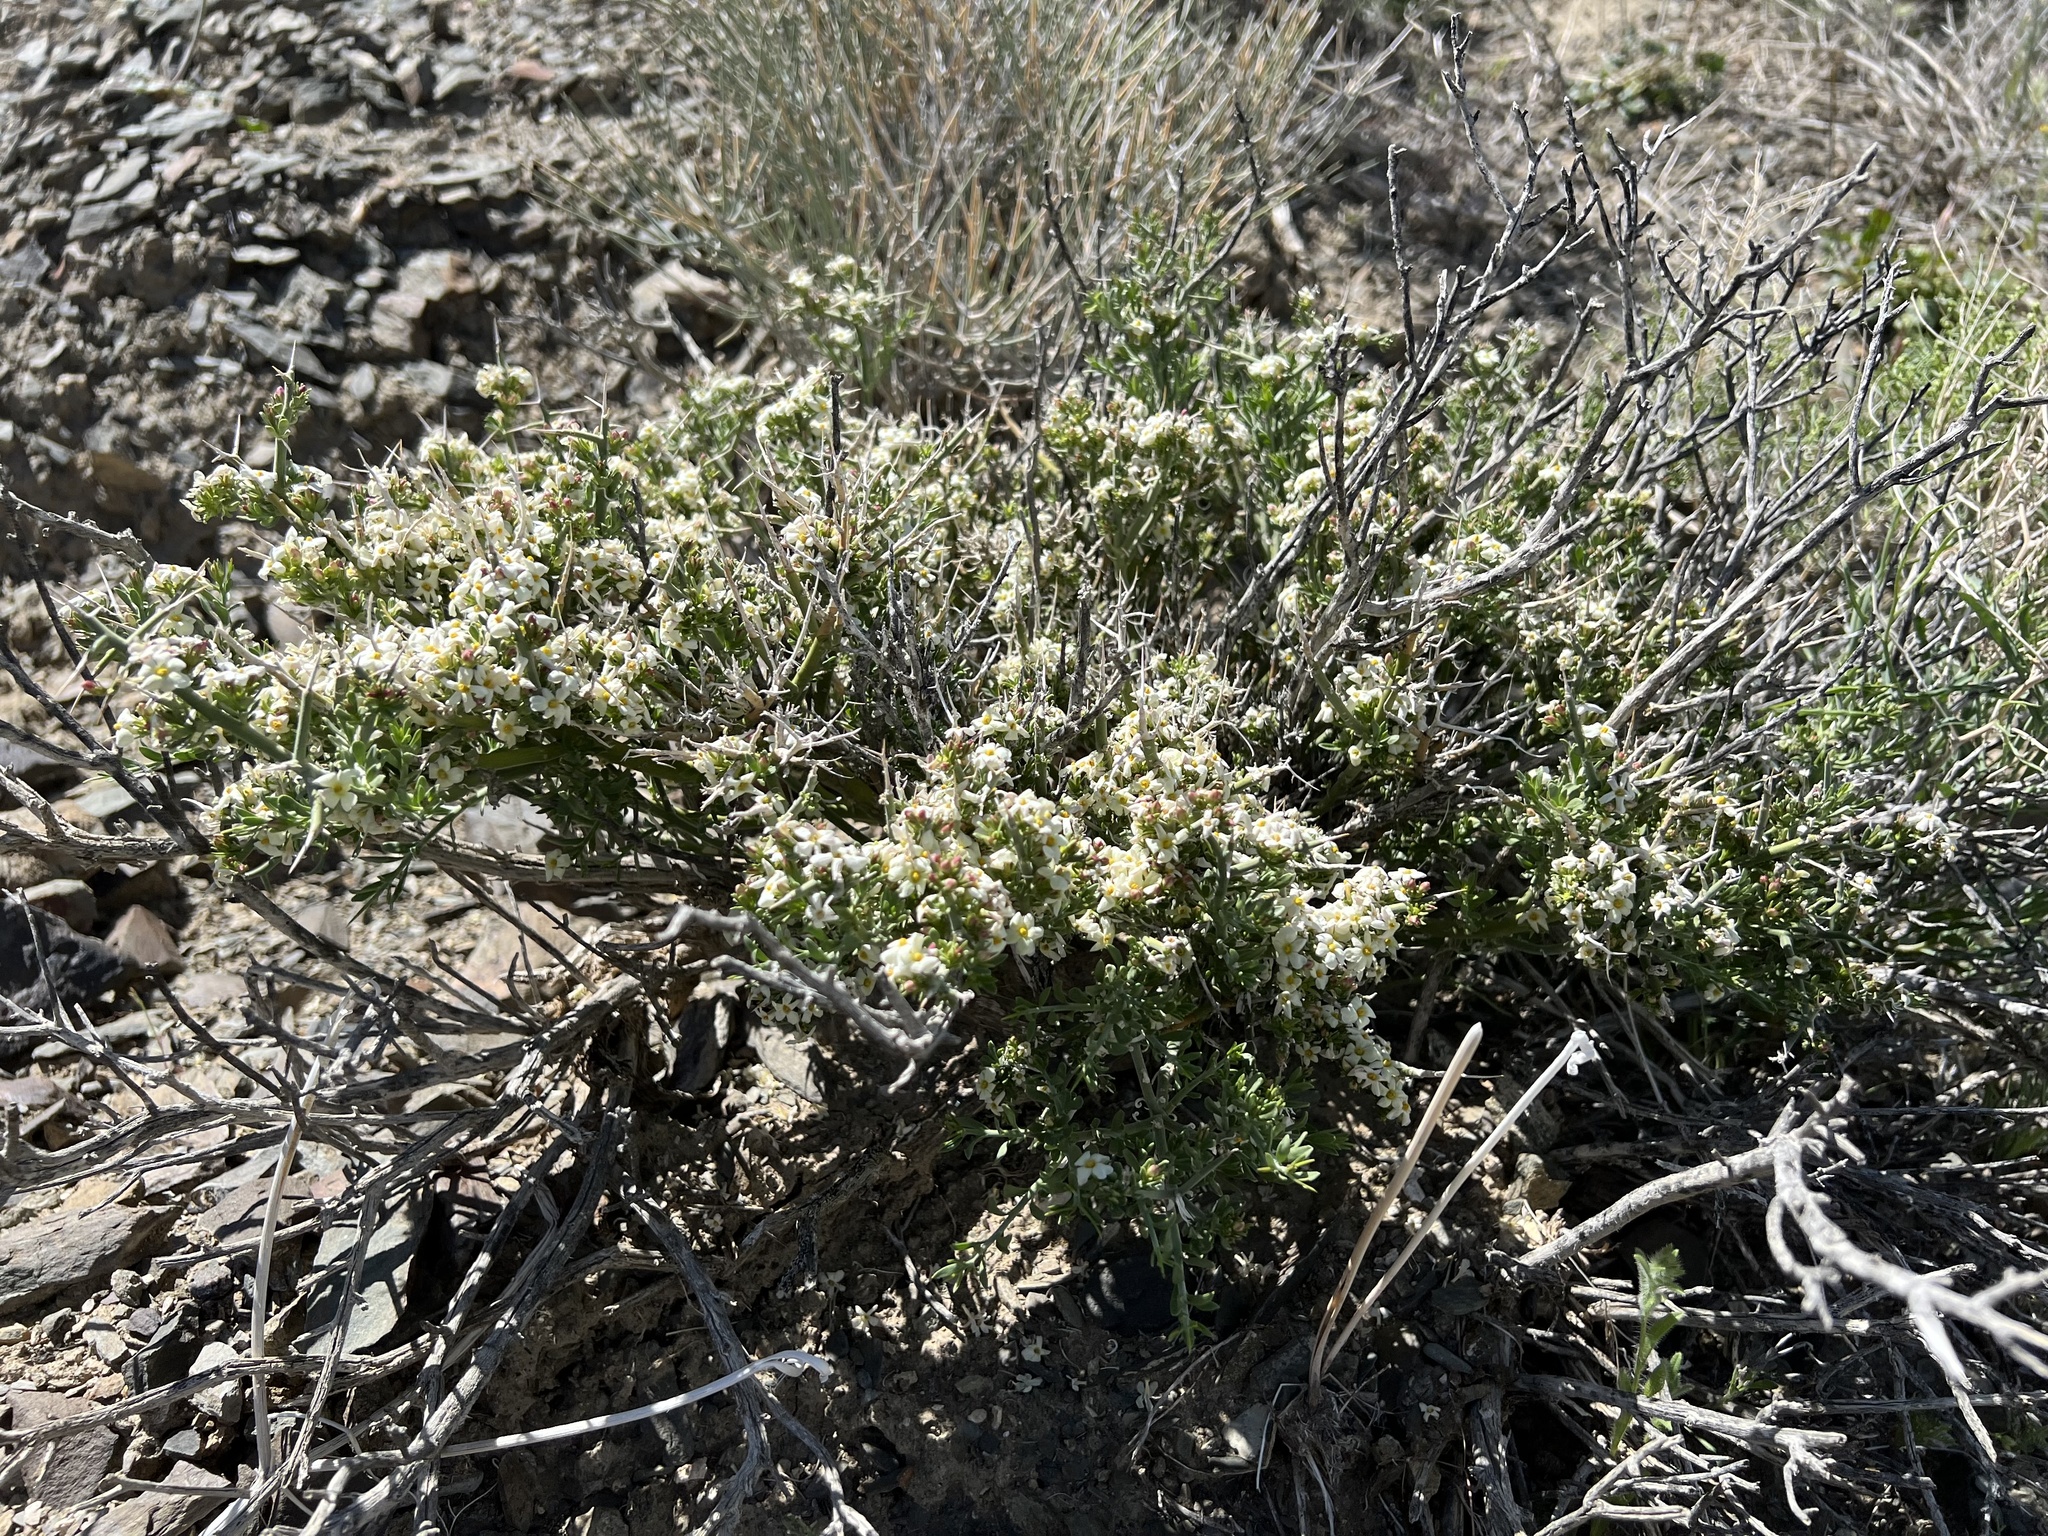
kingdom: Plantae
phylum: Tracheophyta
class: Magnoliopsida
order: Lamiales
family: Oleaceae
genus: Menodora
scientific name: Menodora spinescens
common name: Spiny menodora
